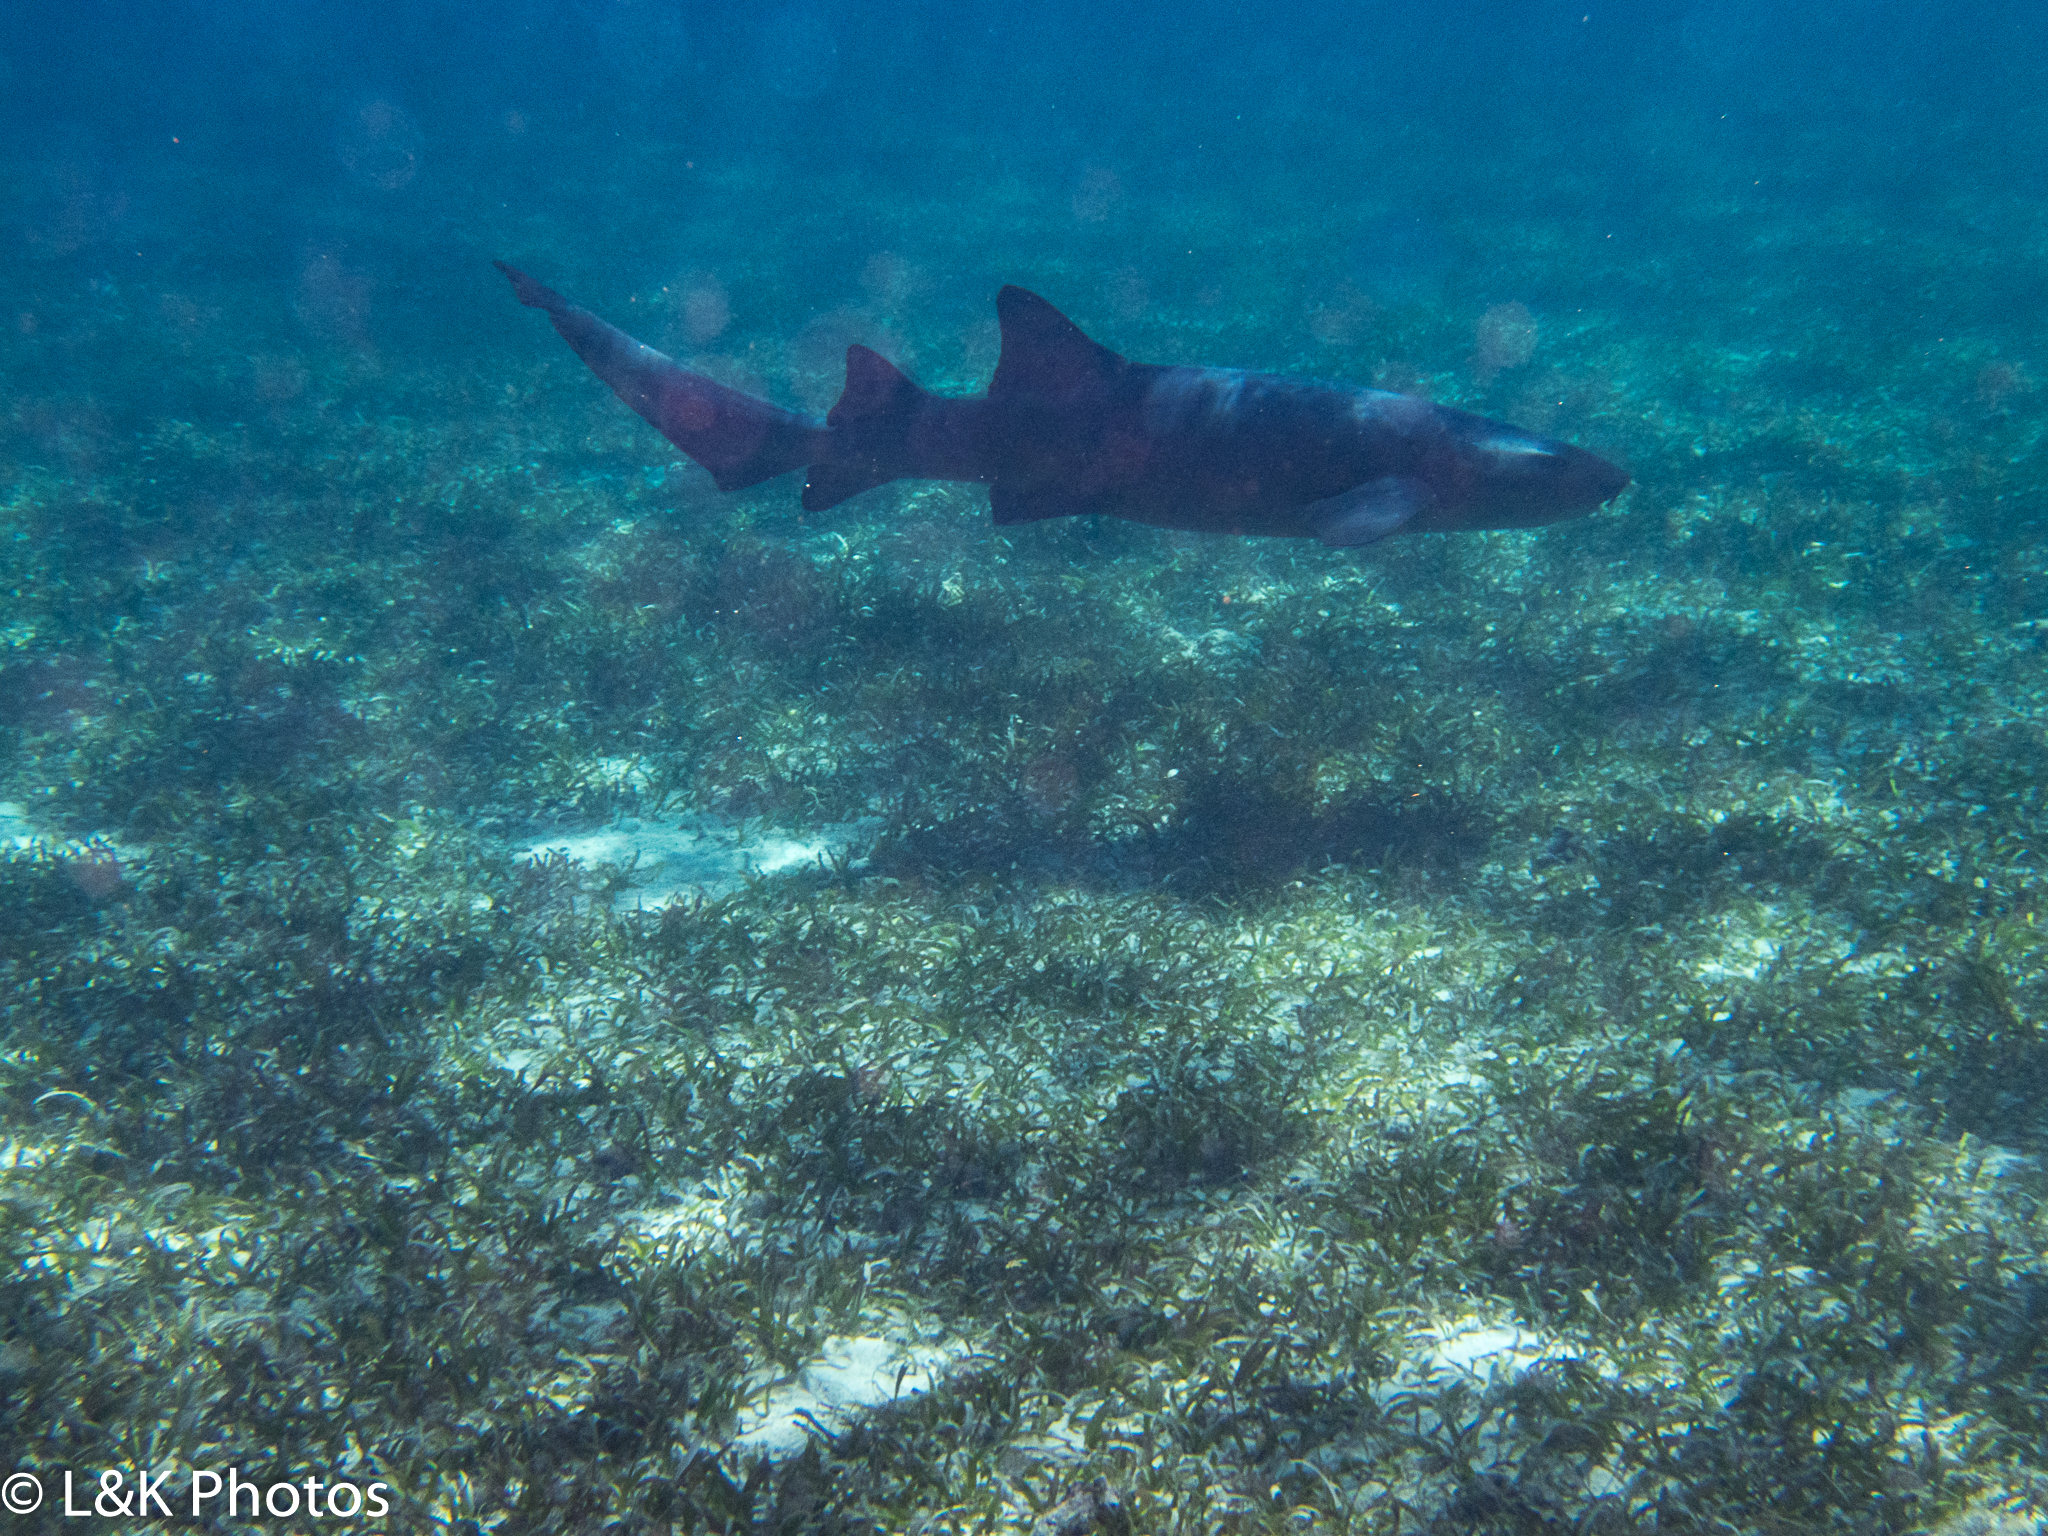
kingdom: Animalia
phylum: Chordata
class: Elasmobranchii
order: Orectolobiformes
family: Ginglymostomatidae
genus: Ginglymostoma
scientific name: Ginglymostoma cirratum
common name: Nurse shark
